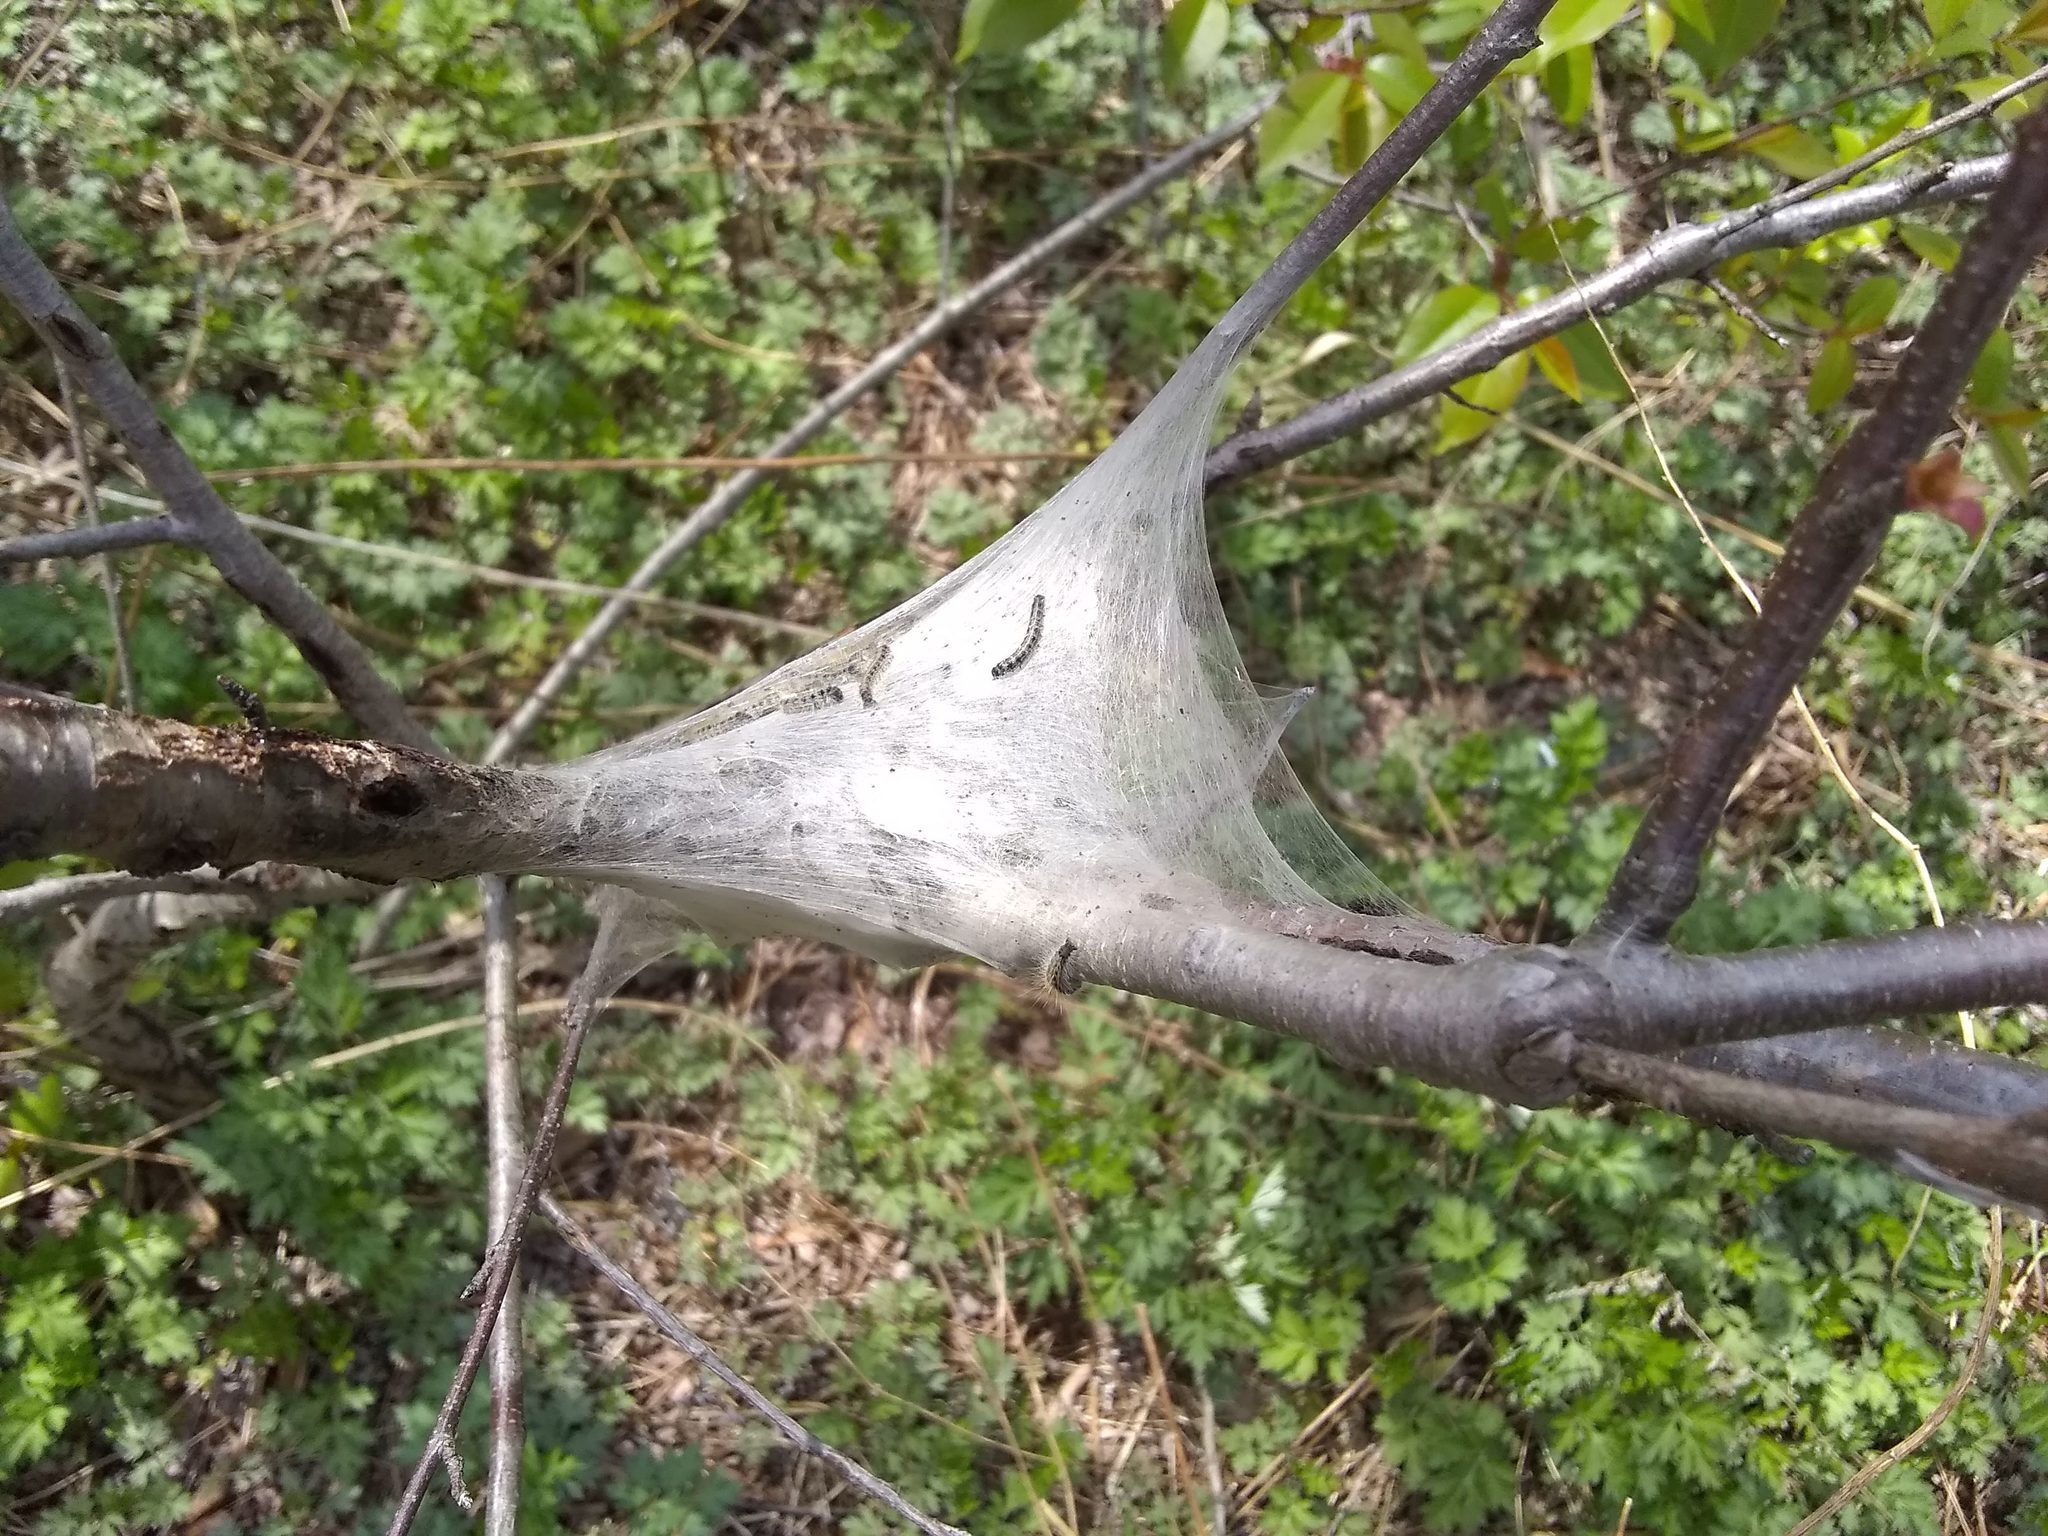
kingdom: Animalia
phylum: Arthropoda
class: Insecta
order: Lepidoptera
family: Lasiocampidae
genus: Malacosoma
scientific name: Malacosoma americana
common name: Eastern tent caterpillar moth
